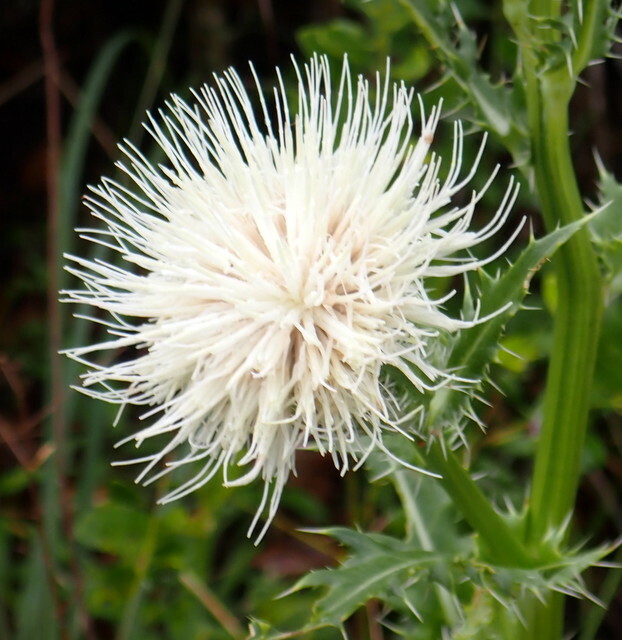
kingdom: Plantae
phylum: Tracheophyta
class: Magnoliopsida
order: Asterales
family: Asteraceae
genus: Cirsium
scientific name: Cirsium horridulum
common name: Bristly thistle
